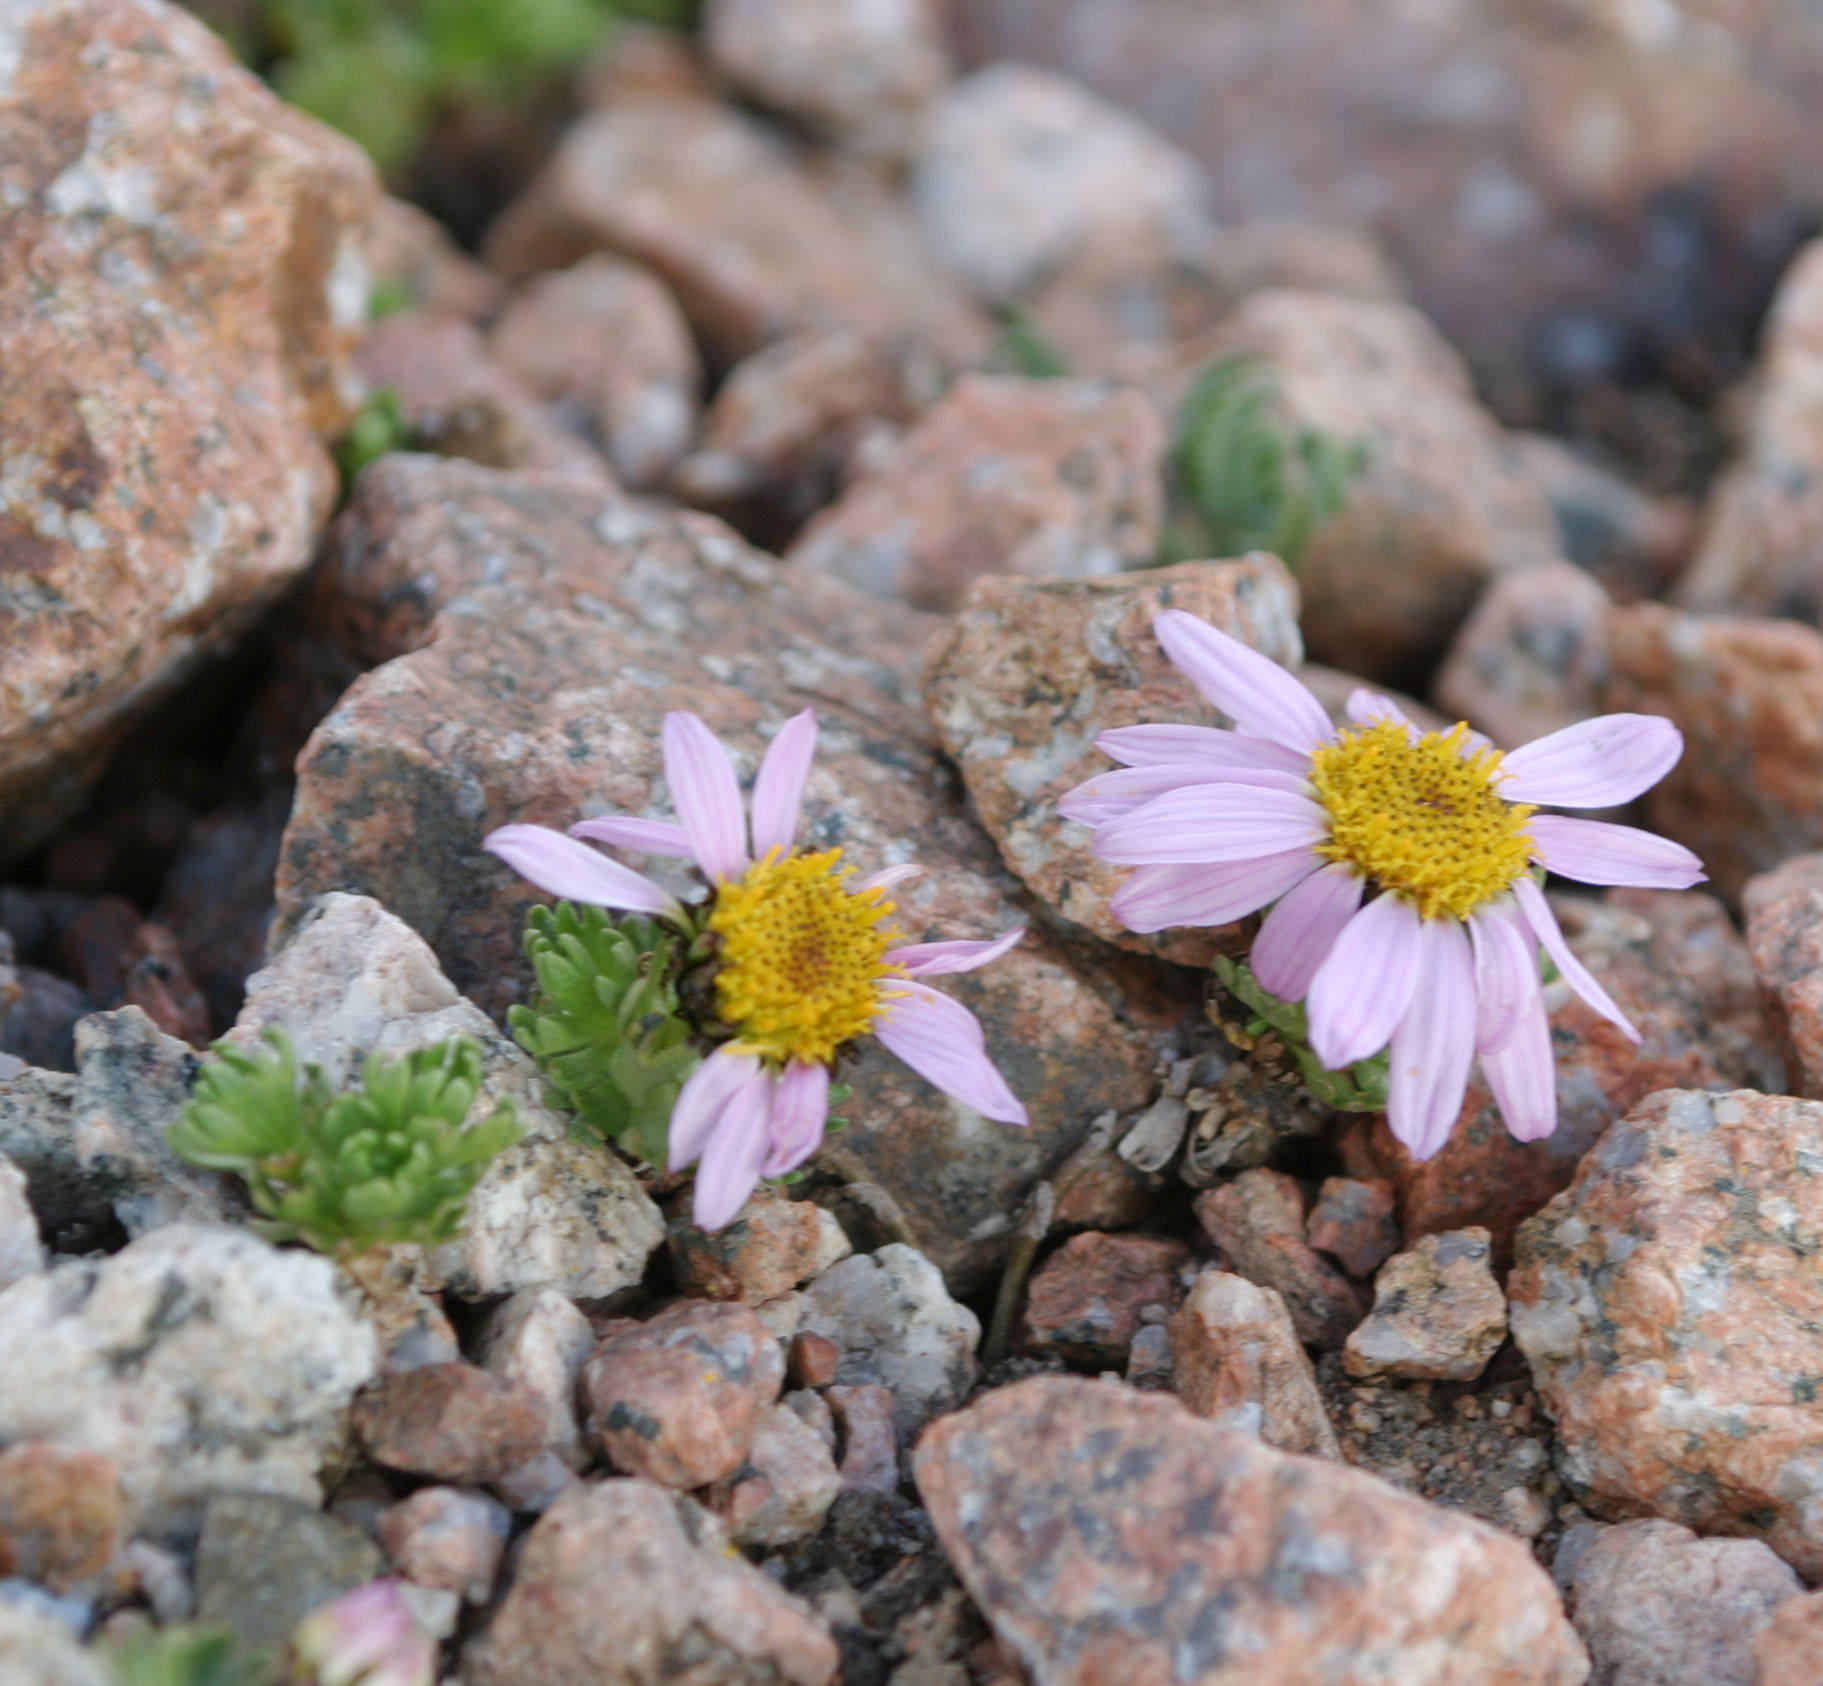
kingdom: Plantae
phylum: Tracheophyta
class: Magnoliopsida
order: Asterales
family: Asteraceae
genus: Allardia
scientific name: Allardia tridactylites
